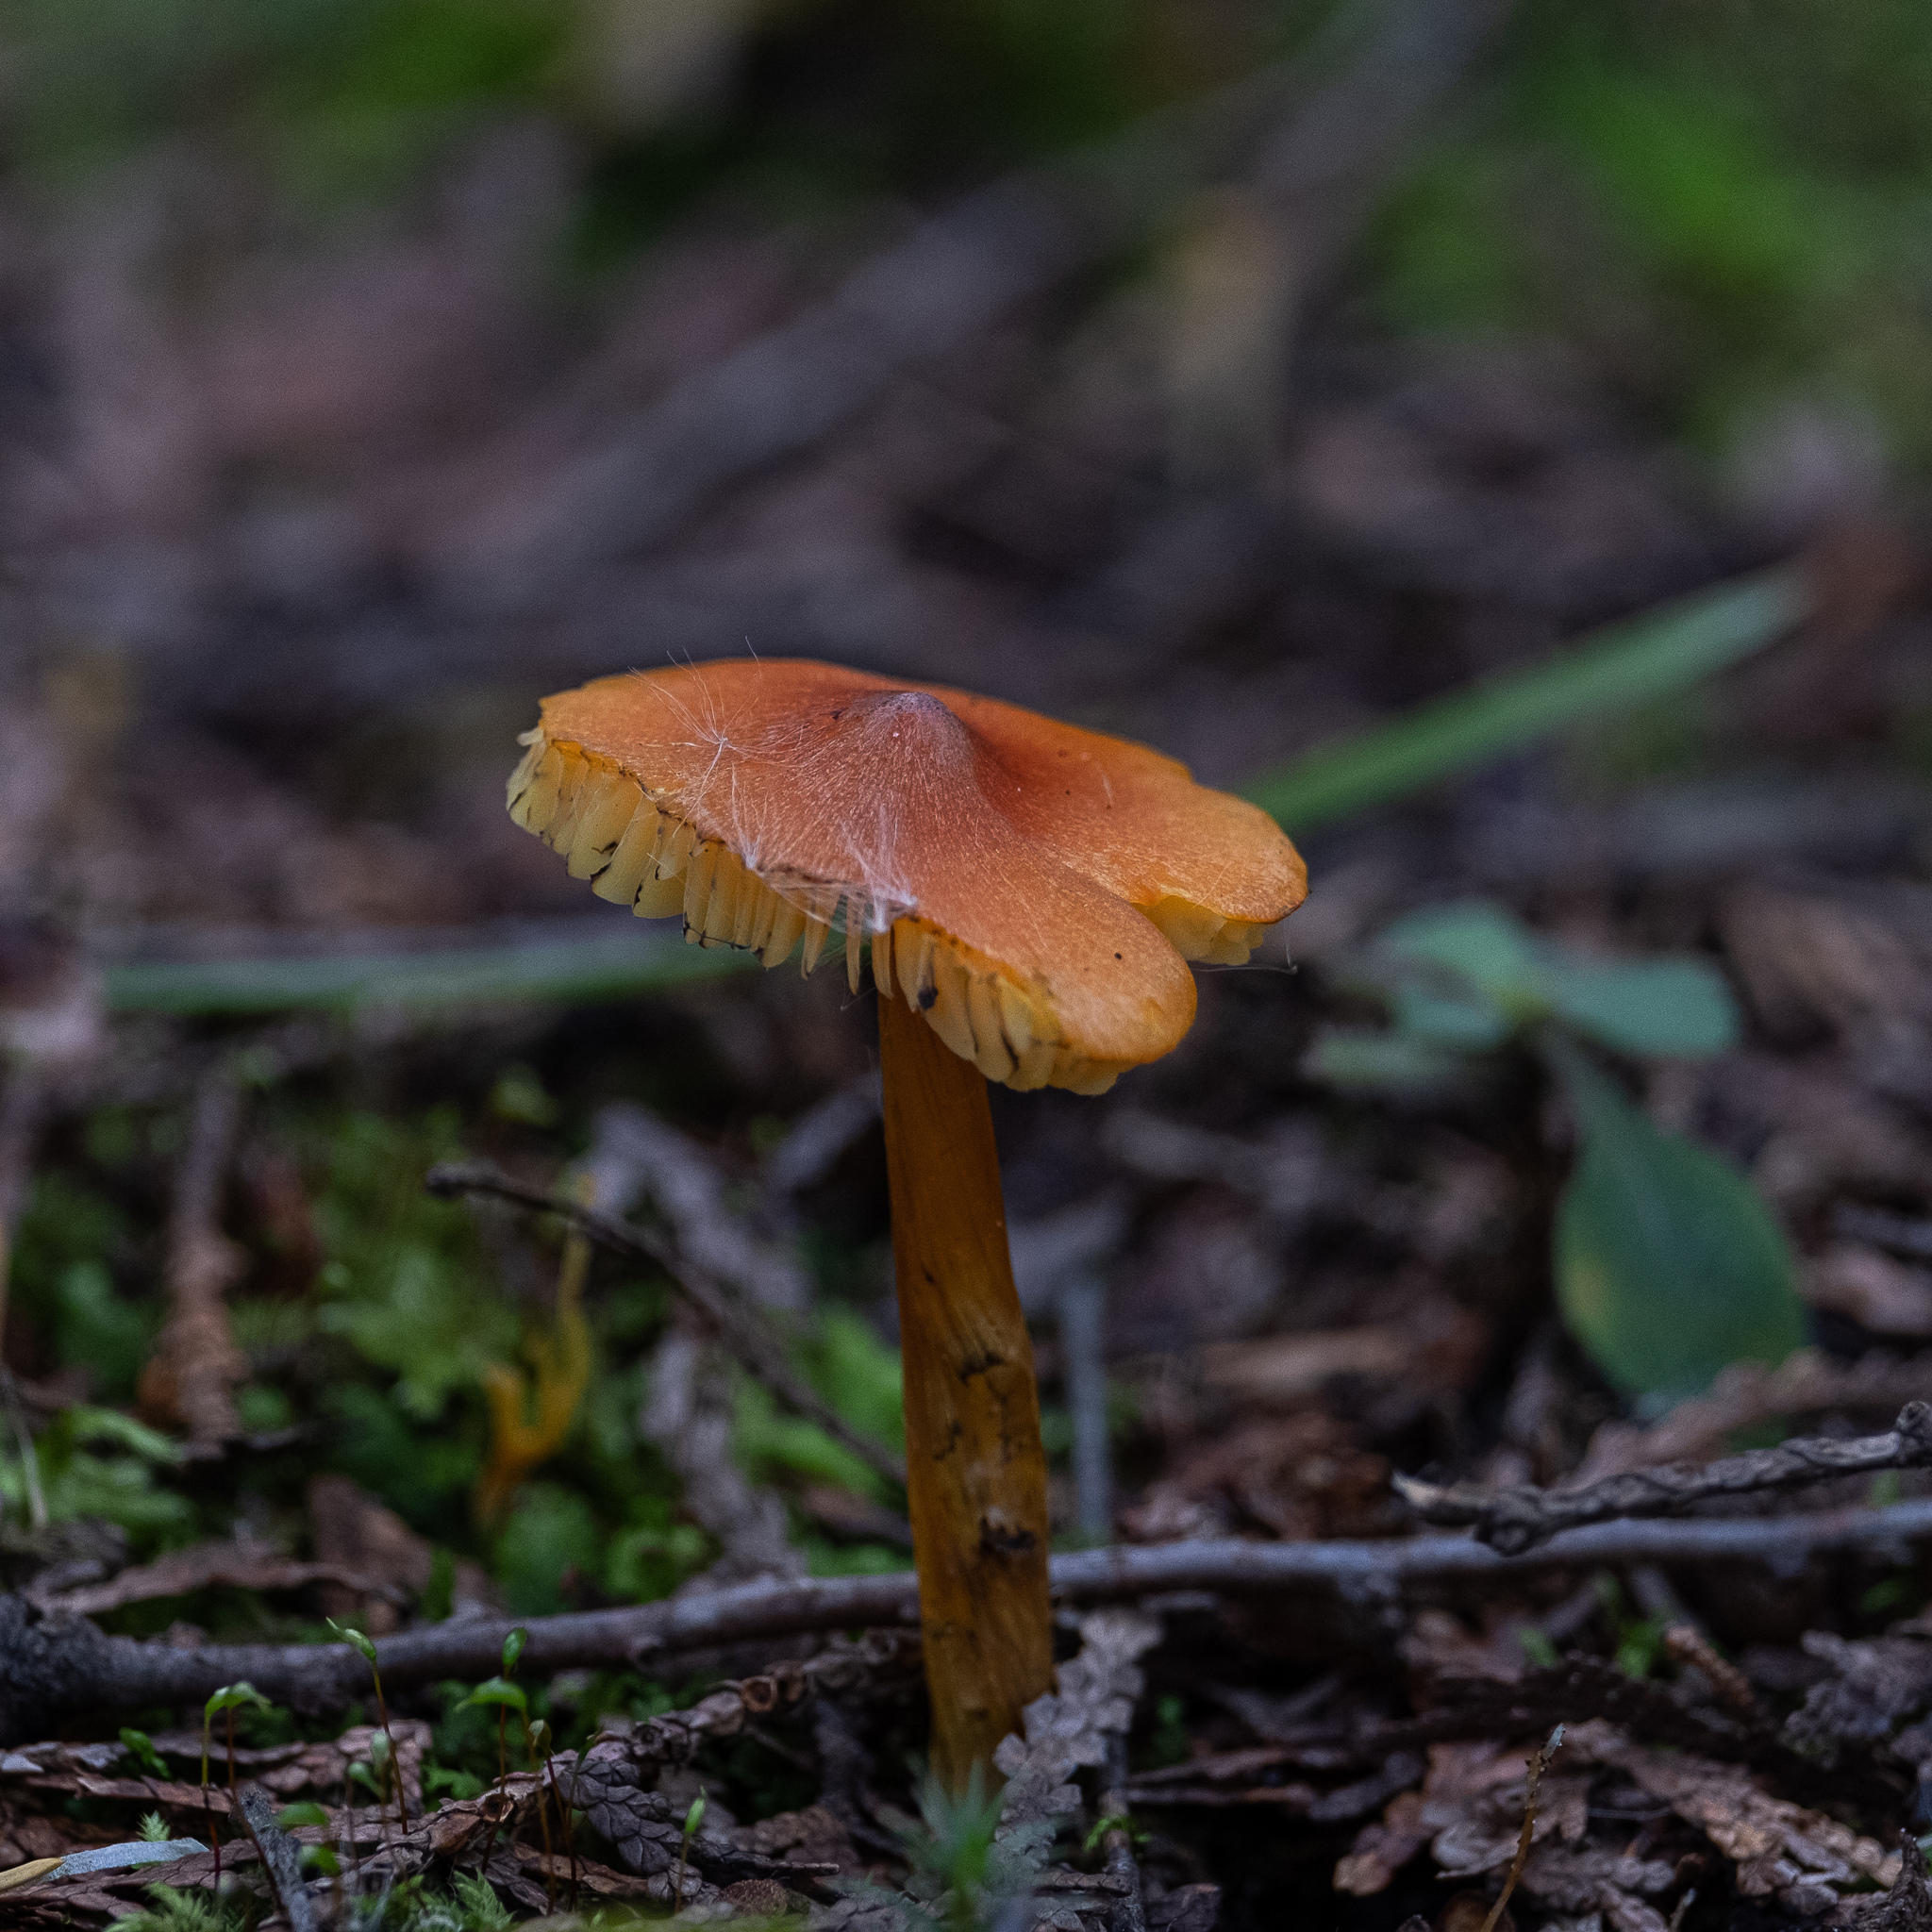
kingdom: Fungi
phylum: Basidiomycota
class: Agaricomycetes
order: Agaricales
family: Hygrophoraceae
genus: Hygrocybe
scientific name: Hygrocybe conica
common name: Blackening wax-cap
